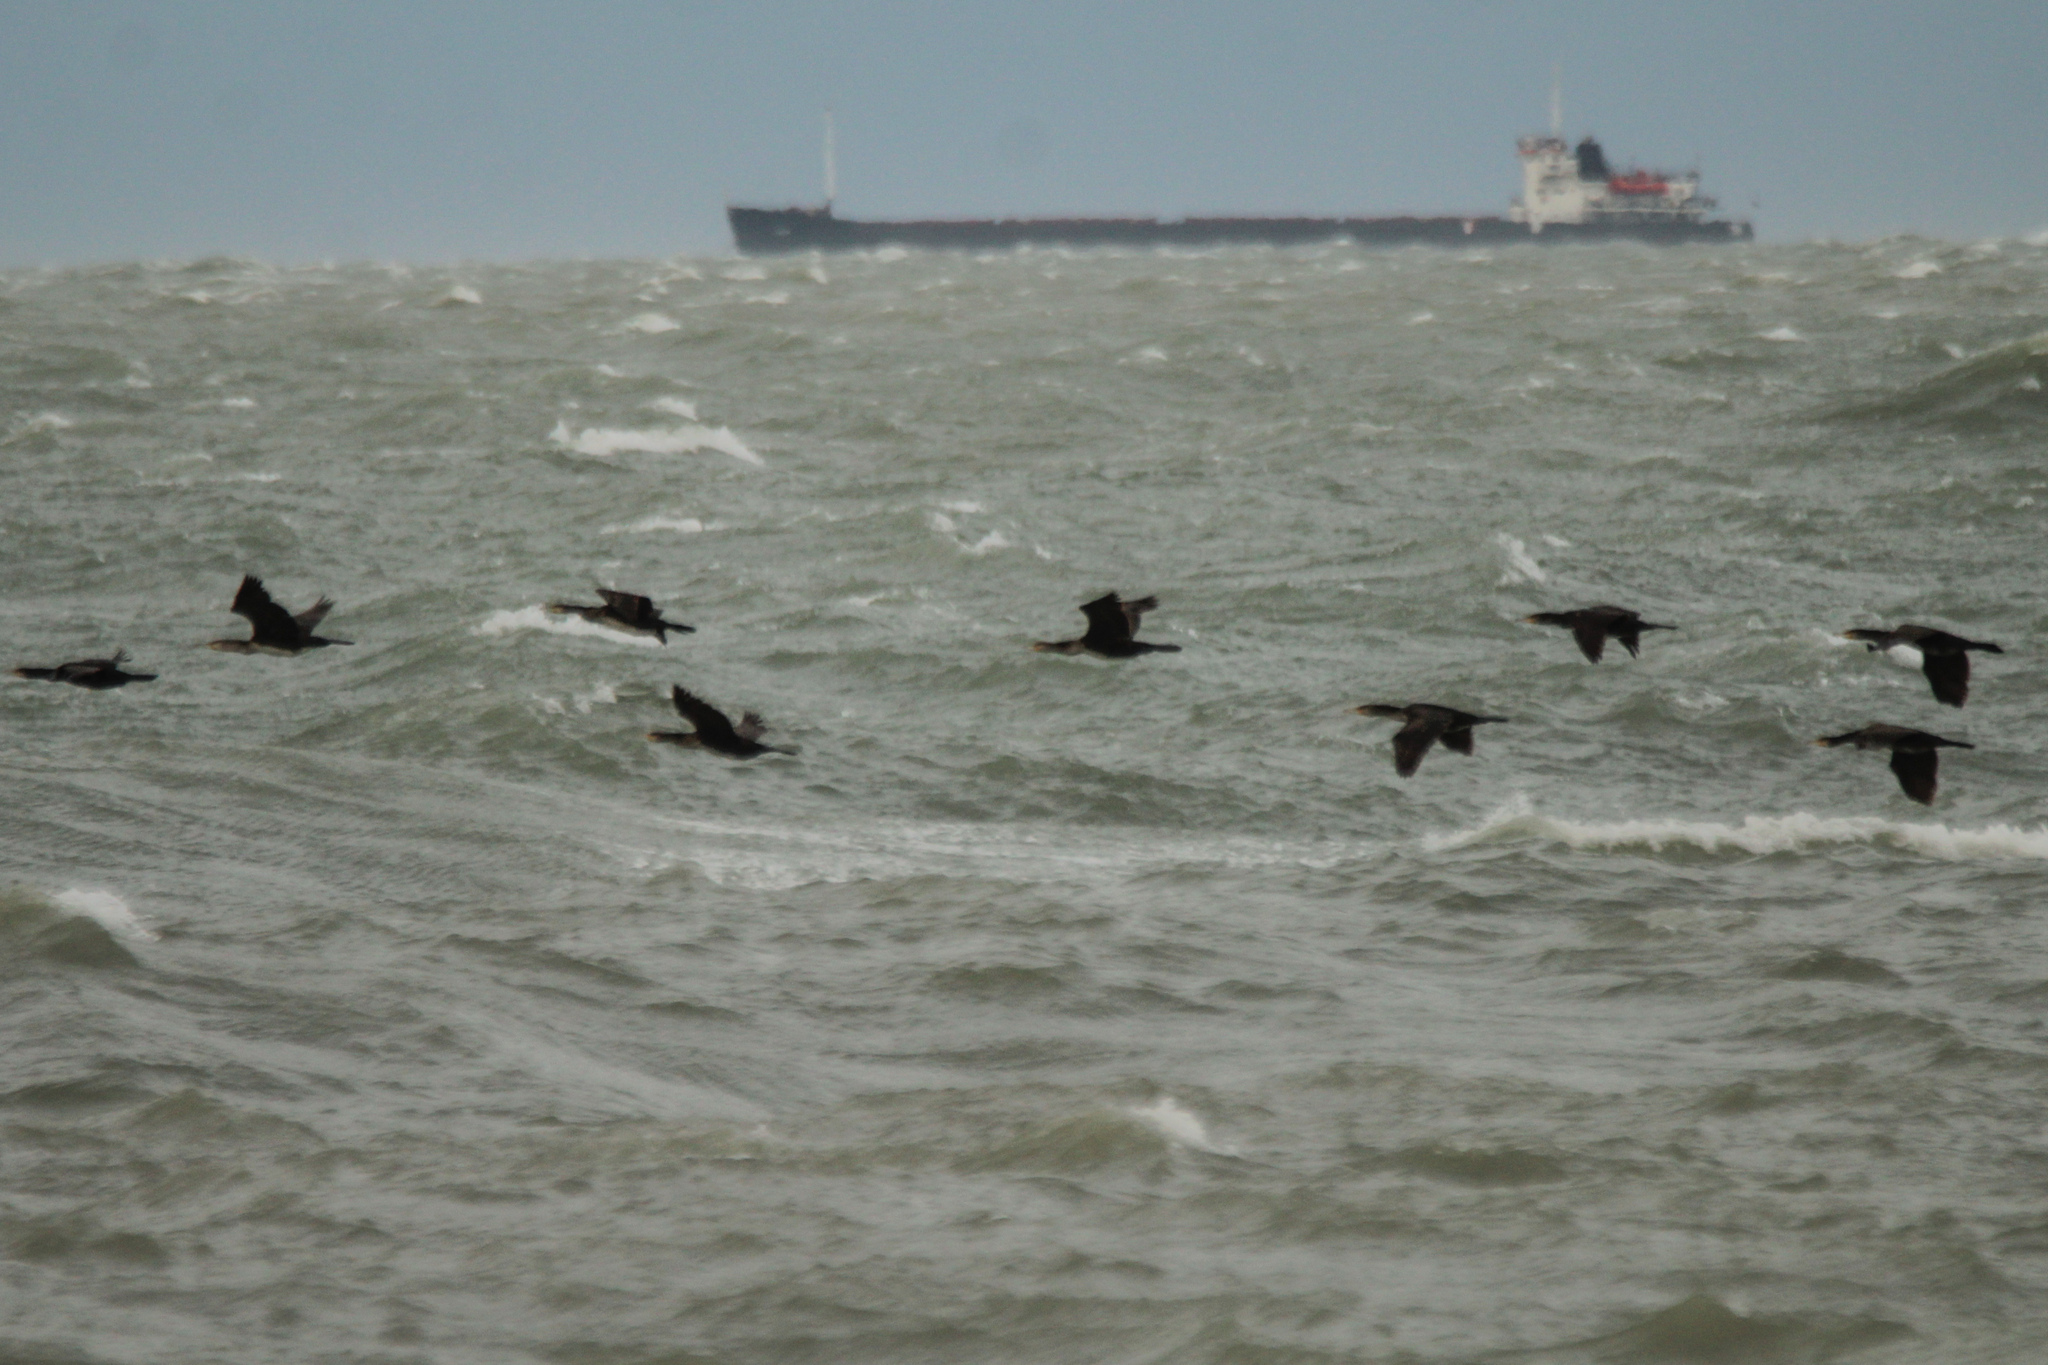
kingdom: Animalia
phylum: Chordata
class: Aves
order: Suliformes
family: Phalacrocoracidae
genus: Phalacrocorax
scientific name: Phalacrocorax carbo
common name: Great cormorant
